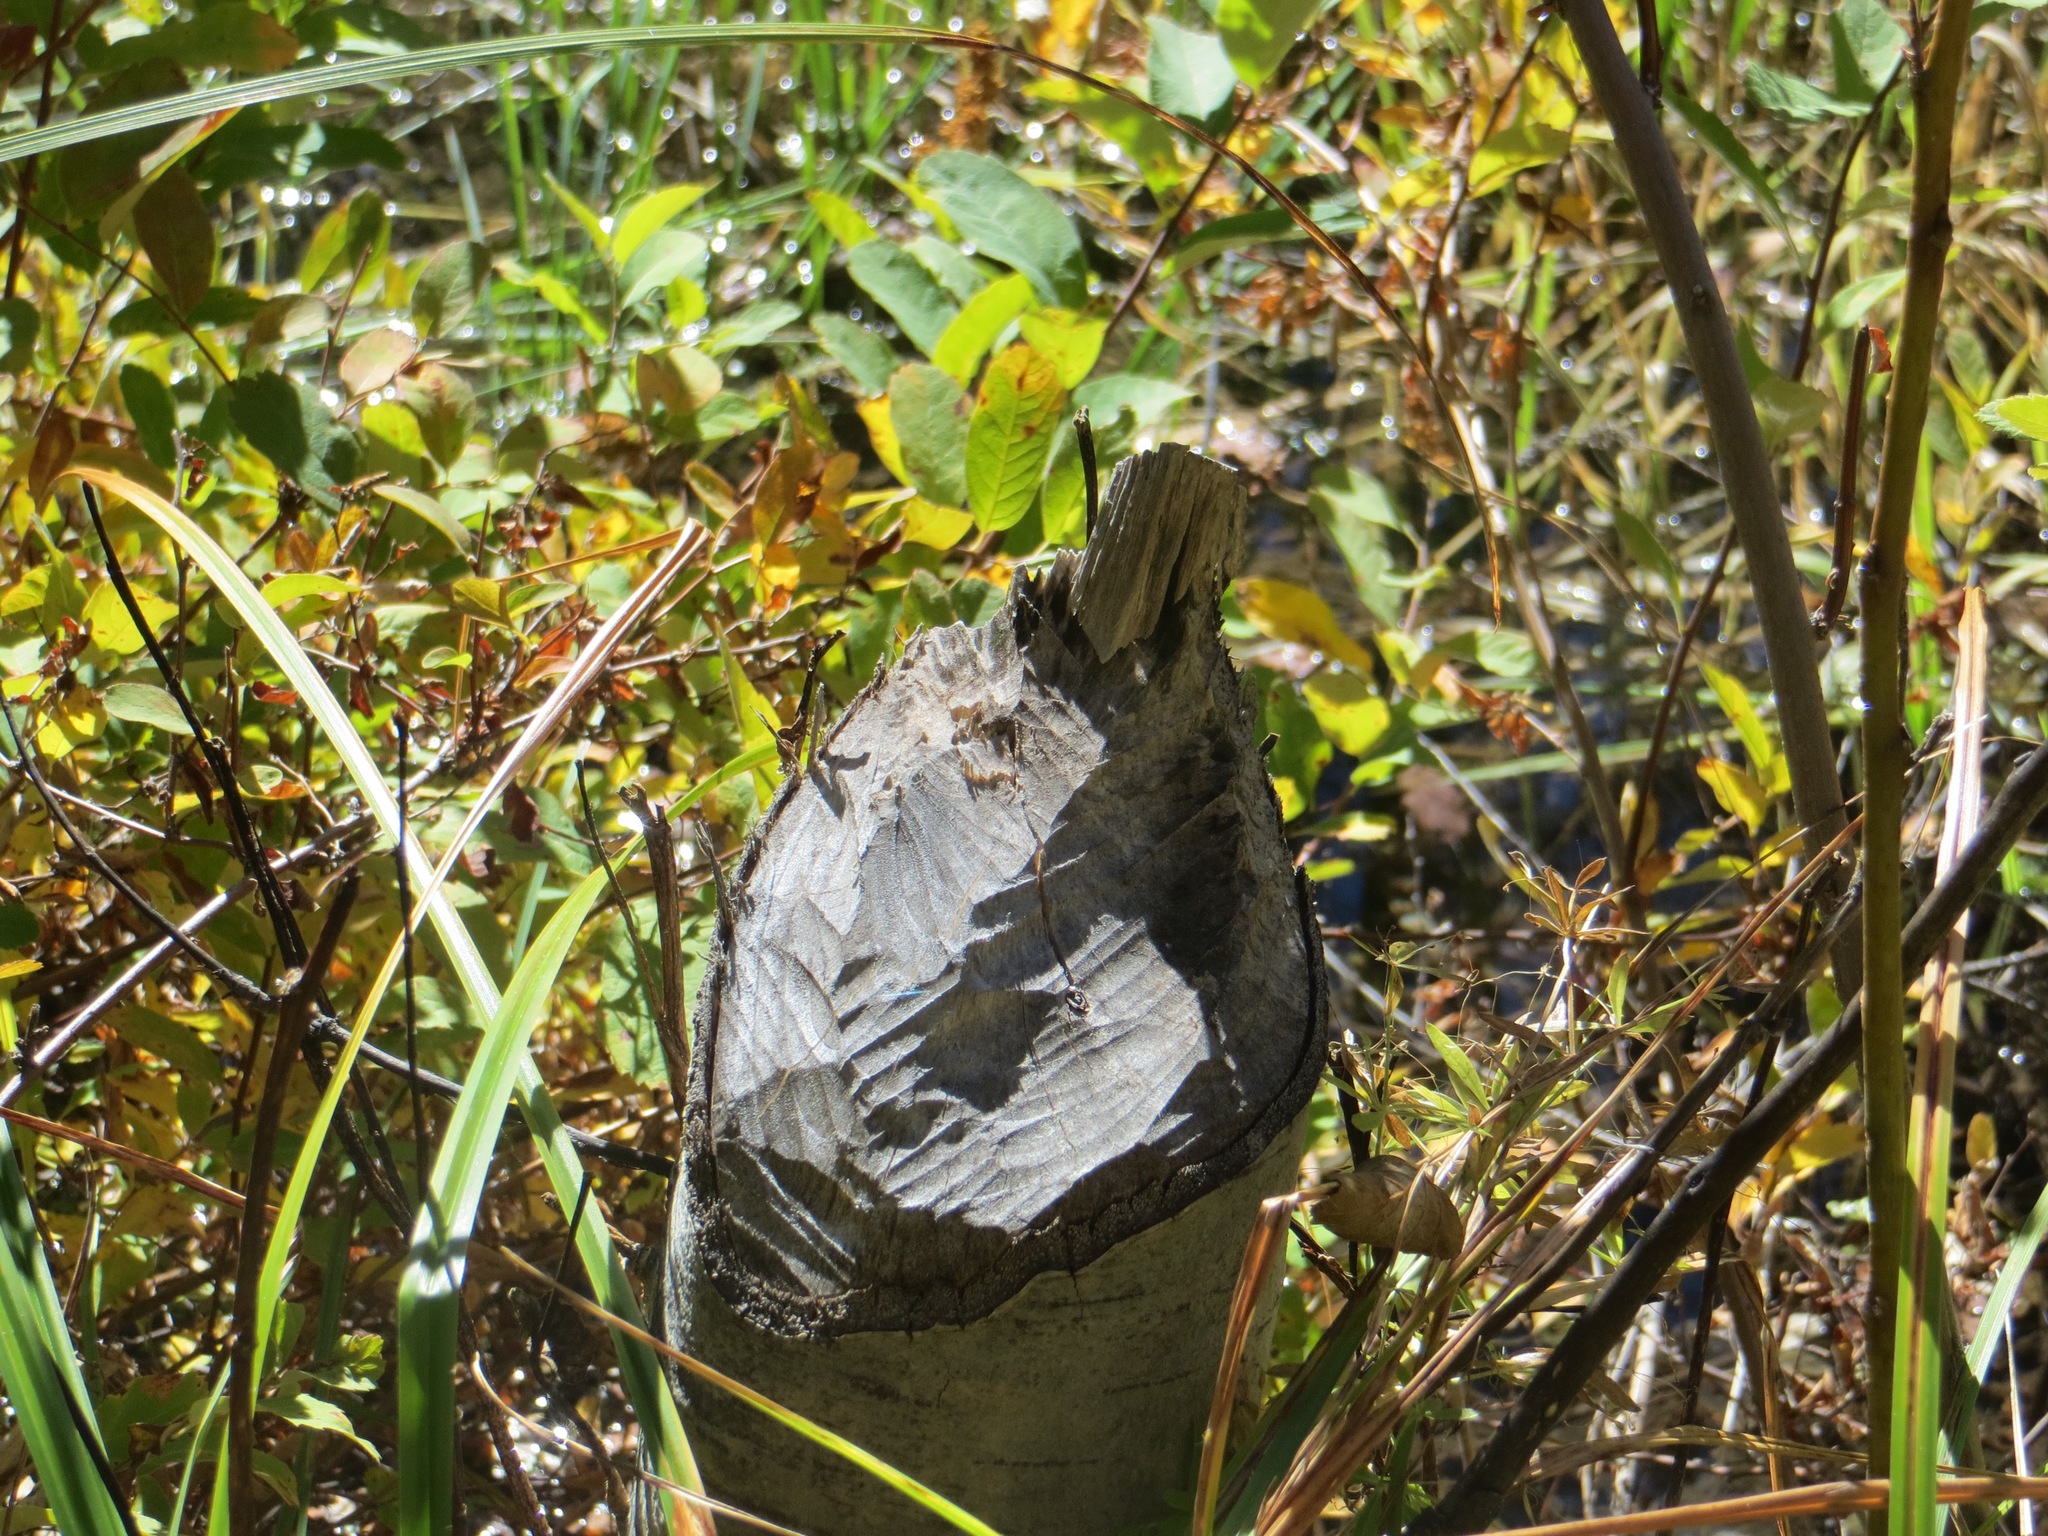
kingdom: Animalia
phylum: Chordata
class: Mammalia
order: Rodentia
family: Castoridae
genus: Castor
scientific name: Castor canadensis
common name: American beaver
